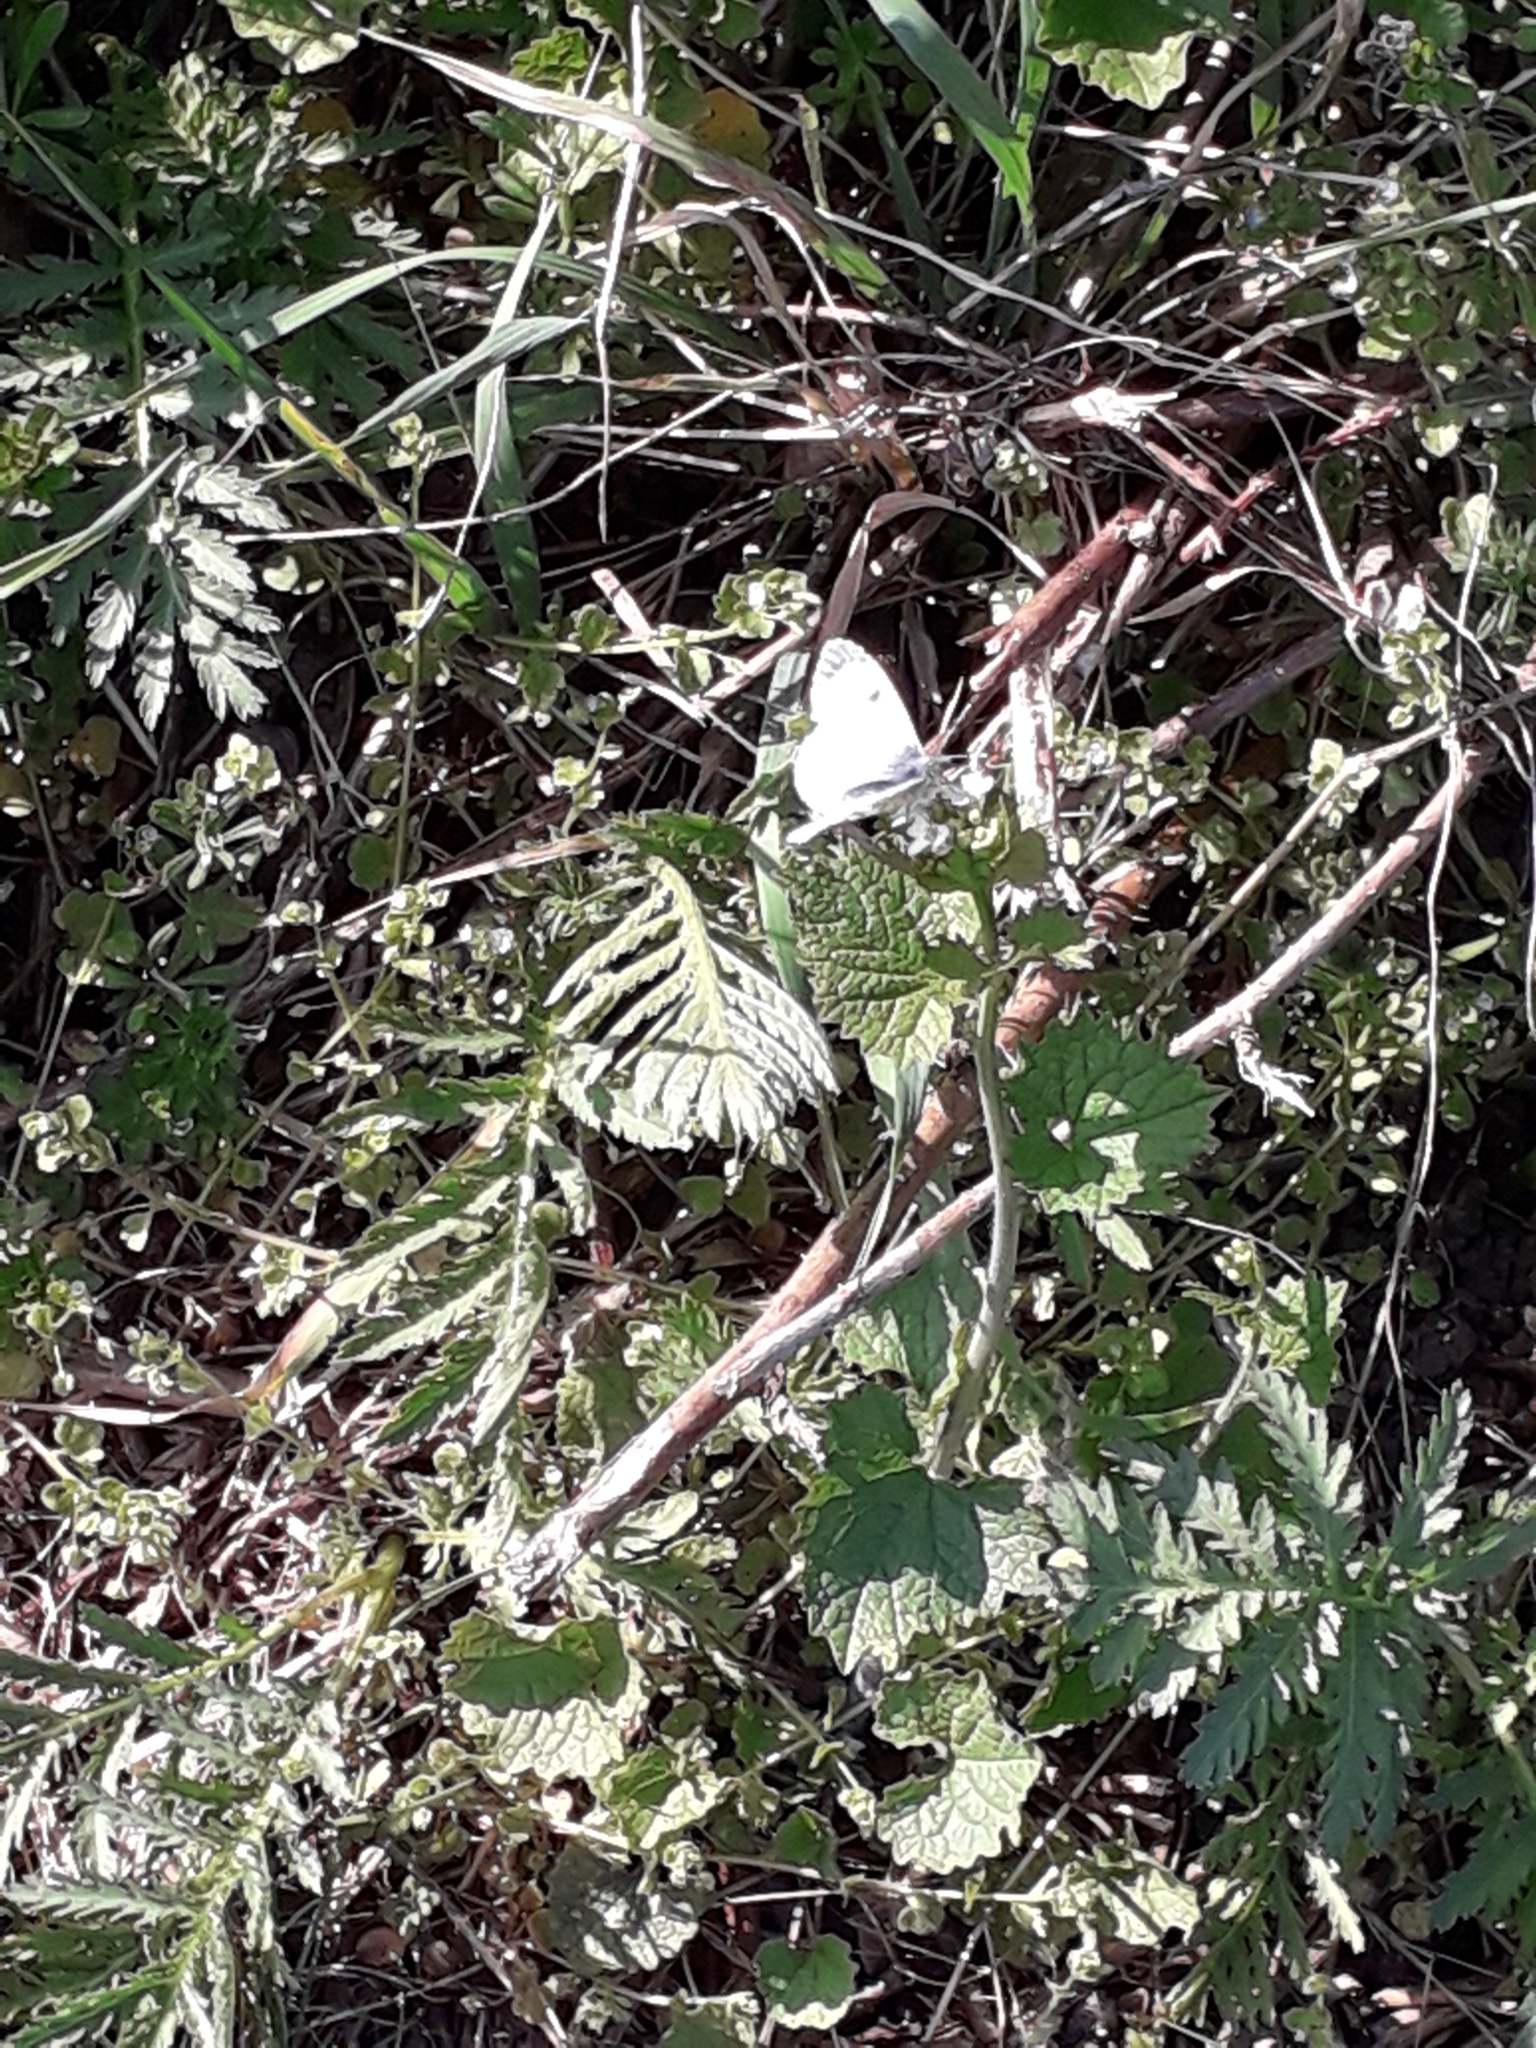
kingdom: Animalia
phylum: Arthropoda
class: Insecta
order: Lepidoptera
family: Pieridae
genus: Anthocharis
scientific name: Anthocharis cardamines
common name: Orange-tip
